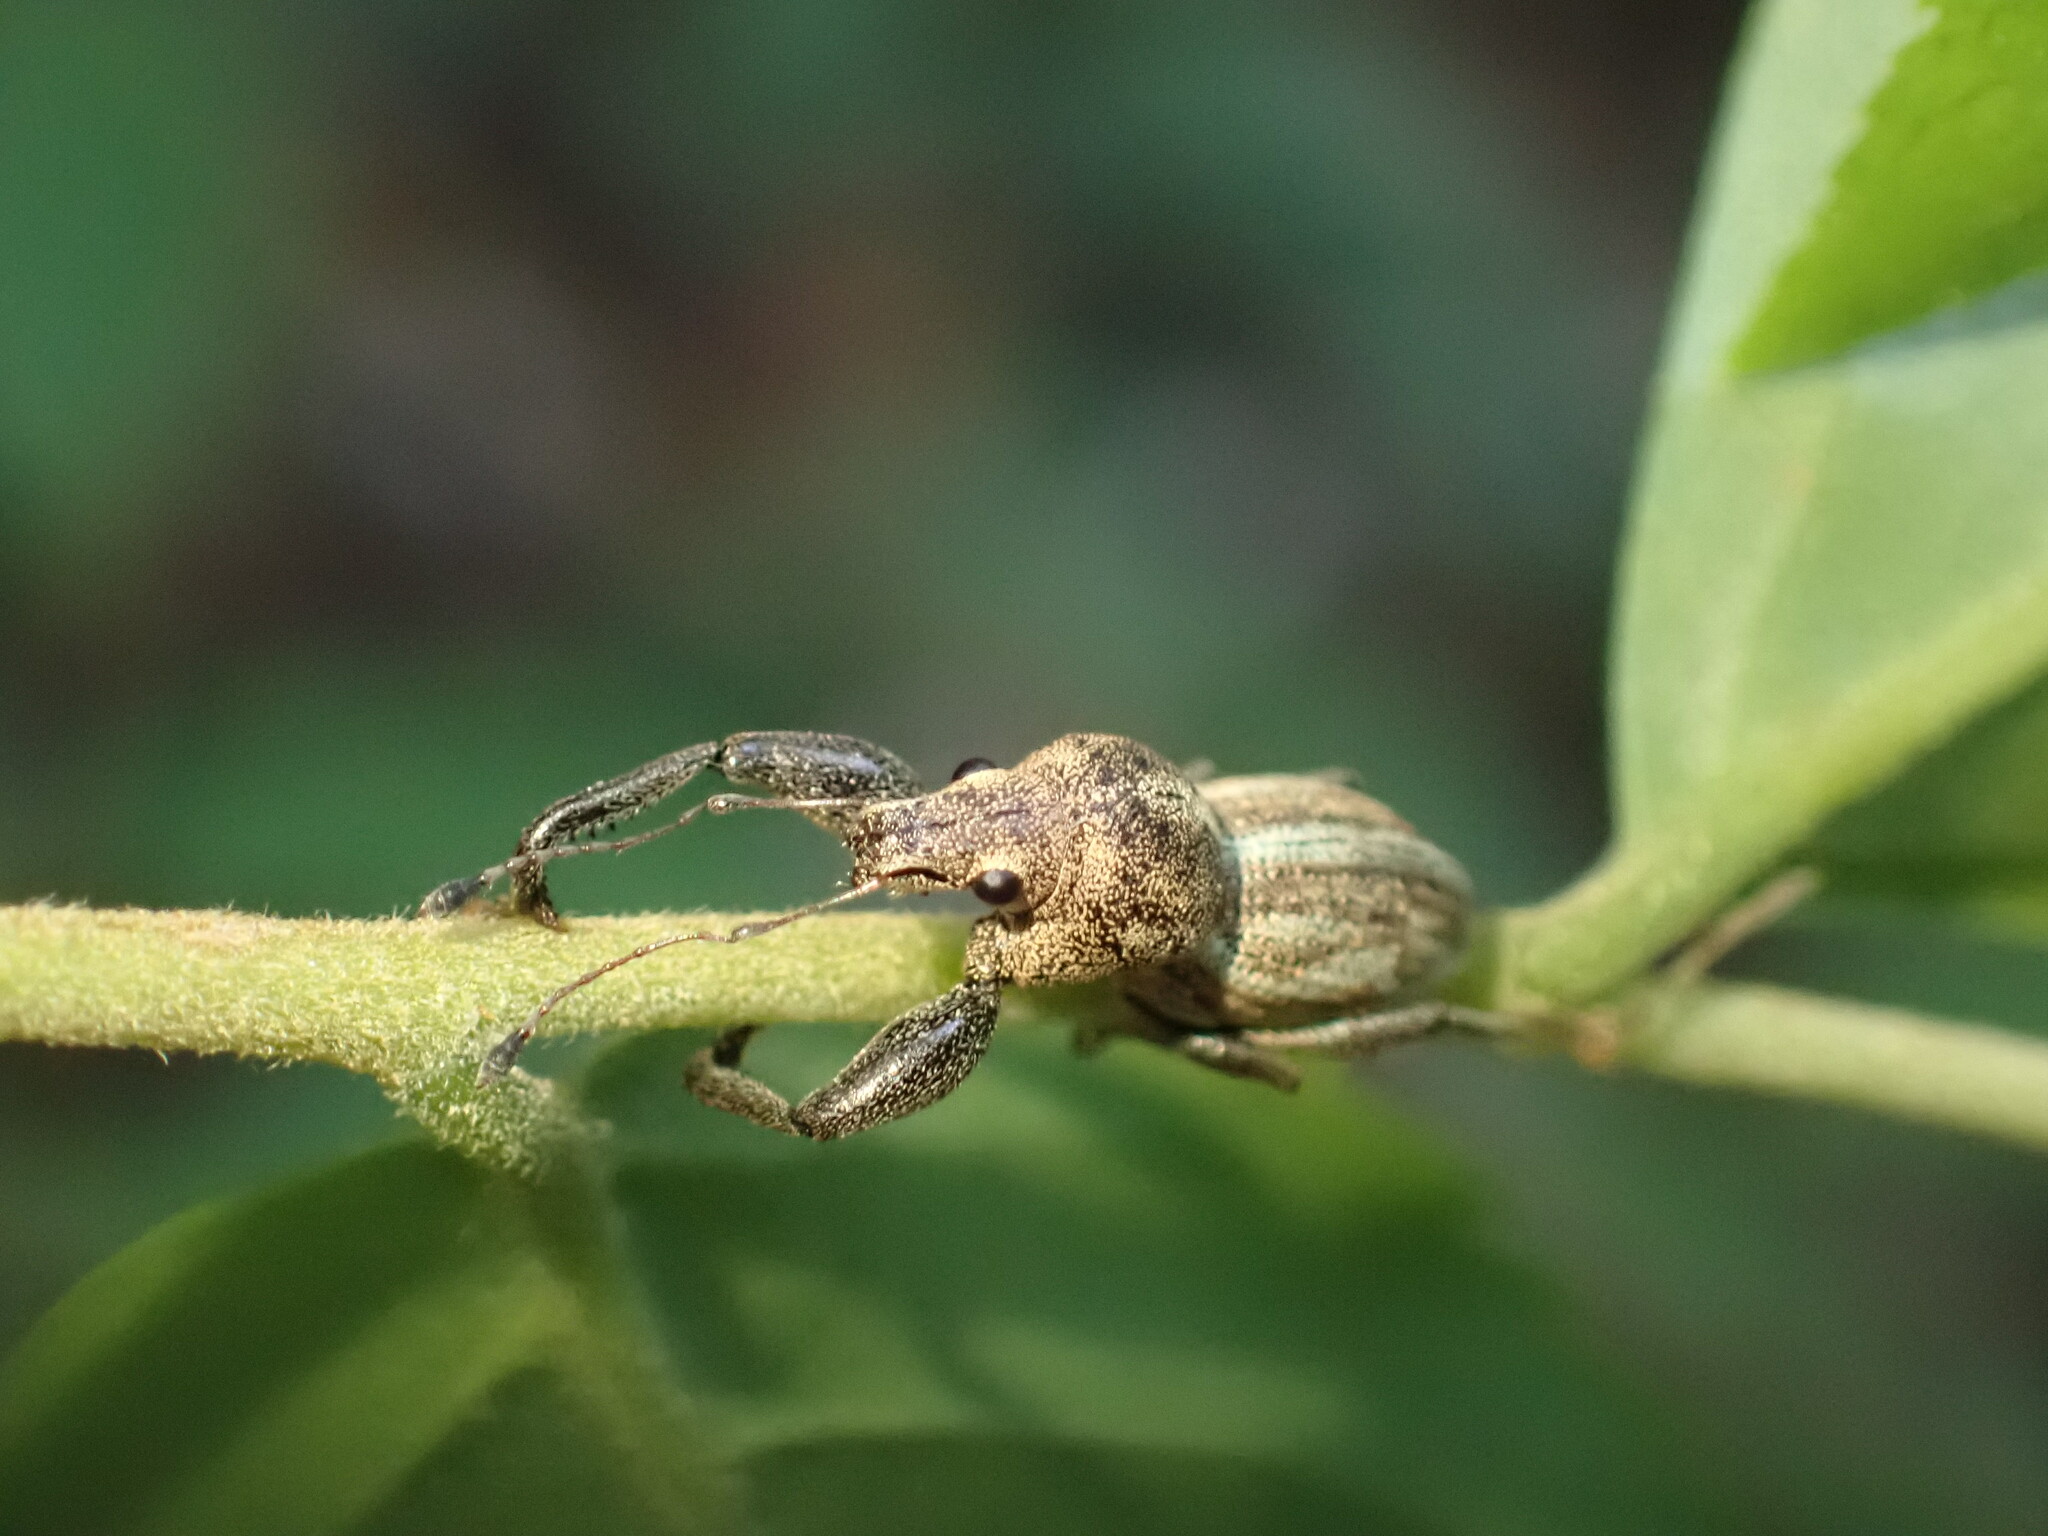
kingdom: Animalia
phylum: Arthropoda
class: Insecta
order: Coleoptera
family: Curculionidae
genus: Alceis
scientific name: Alceis curtus
